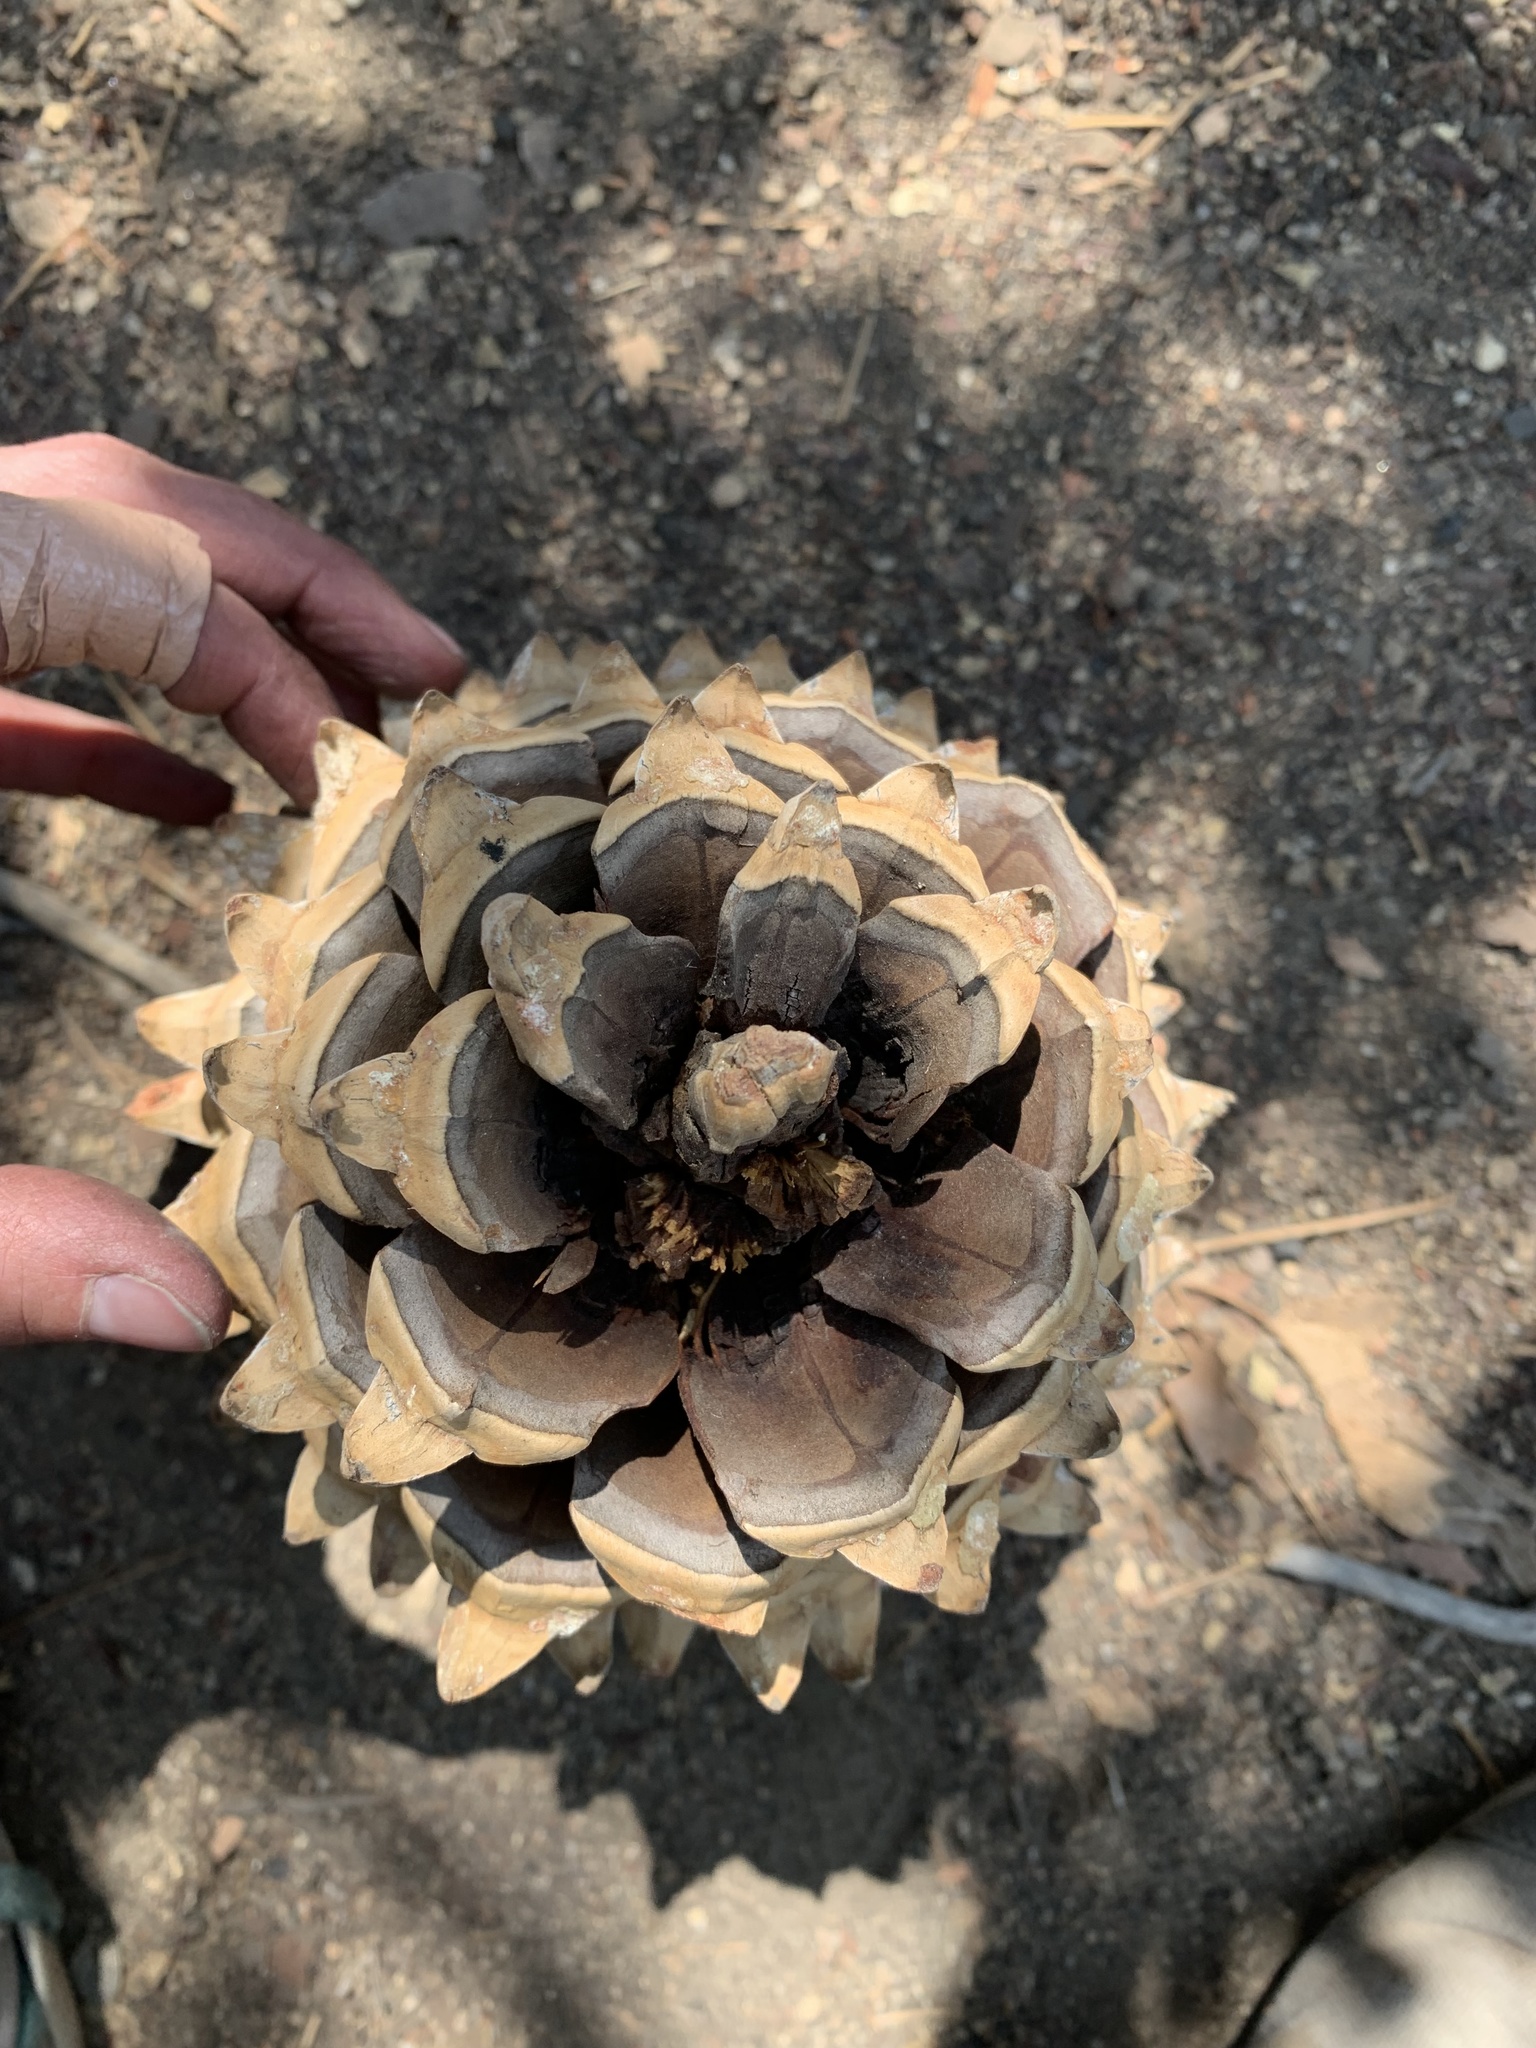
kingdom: Plantae
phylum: Tracheophyta
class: Pinopsida
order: Pinales
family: Pinaceae
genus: Pinus
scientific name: Pinus coulteri
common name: Coulter pine
